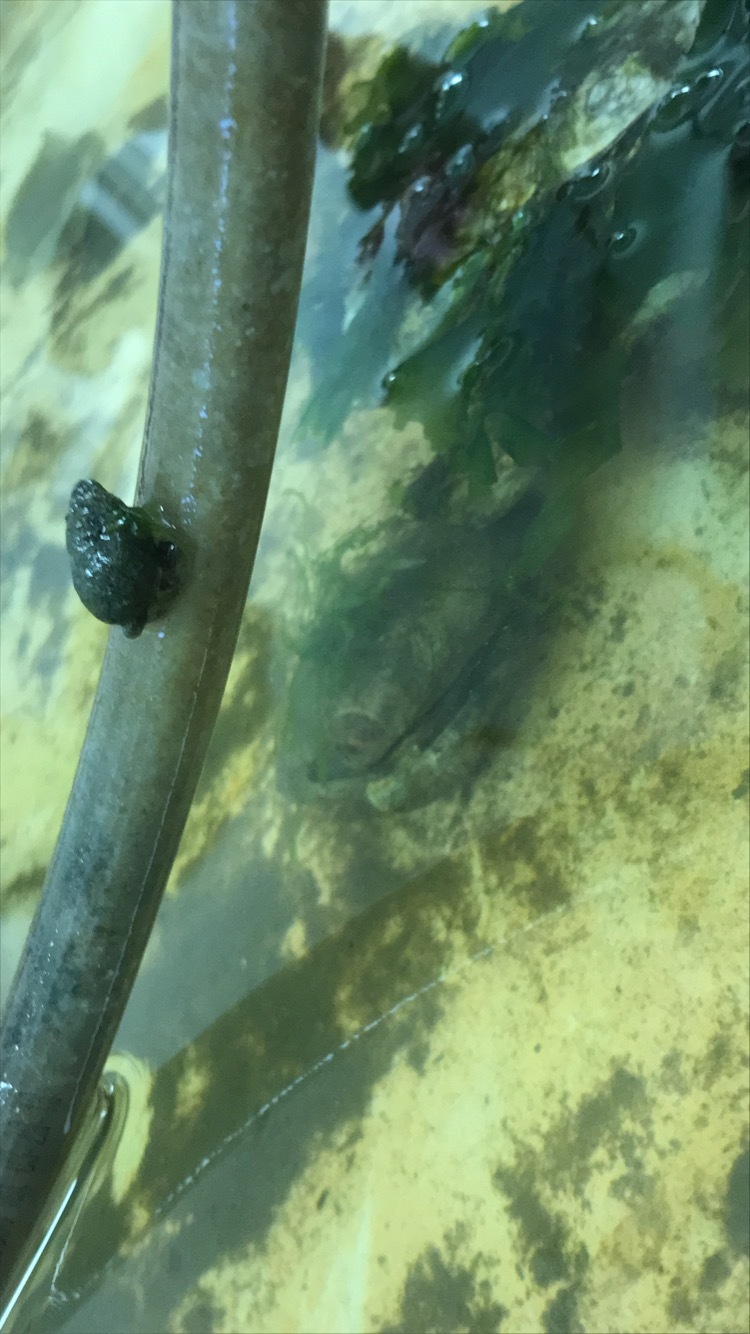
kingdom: Animalia
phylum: Mollusca
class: Gastropoda
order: Neogastropoda
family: Nassariidae
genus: Ilyanassa
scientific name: Ilyanassa obsoleta
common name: Eastern mudsnail
